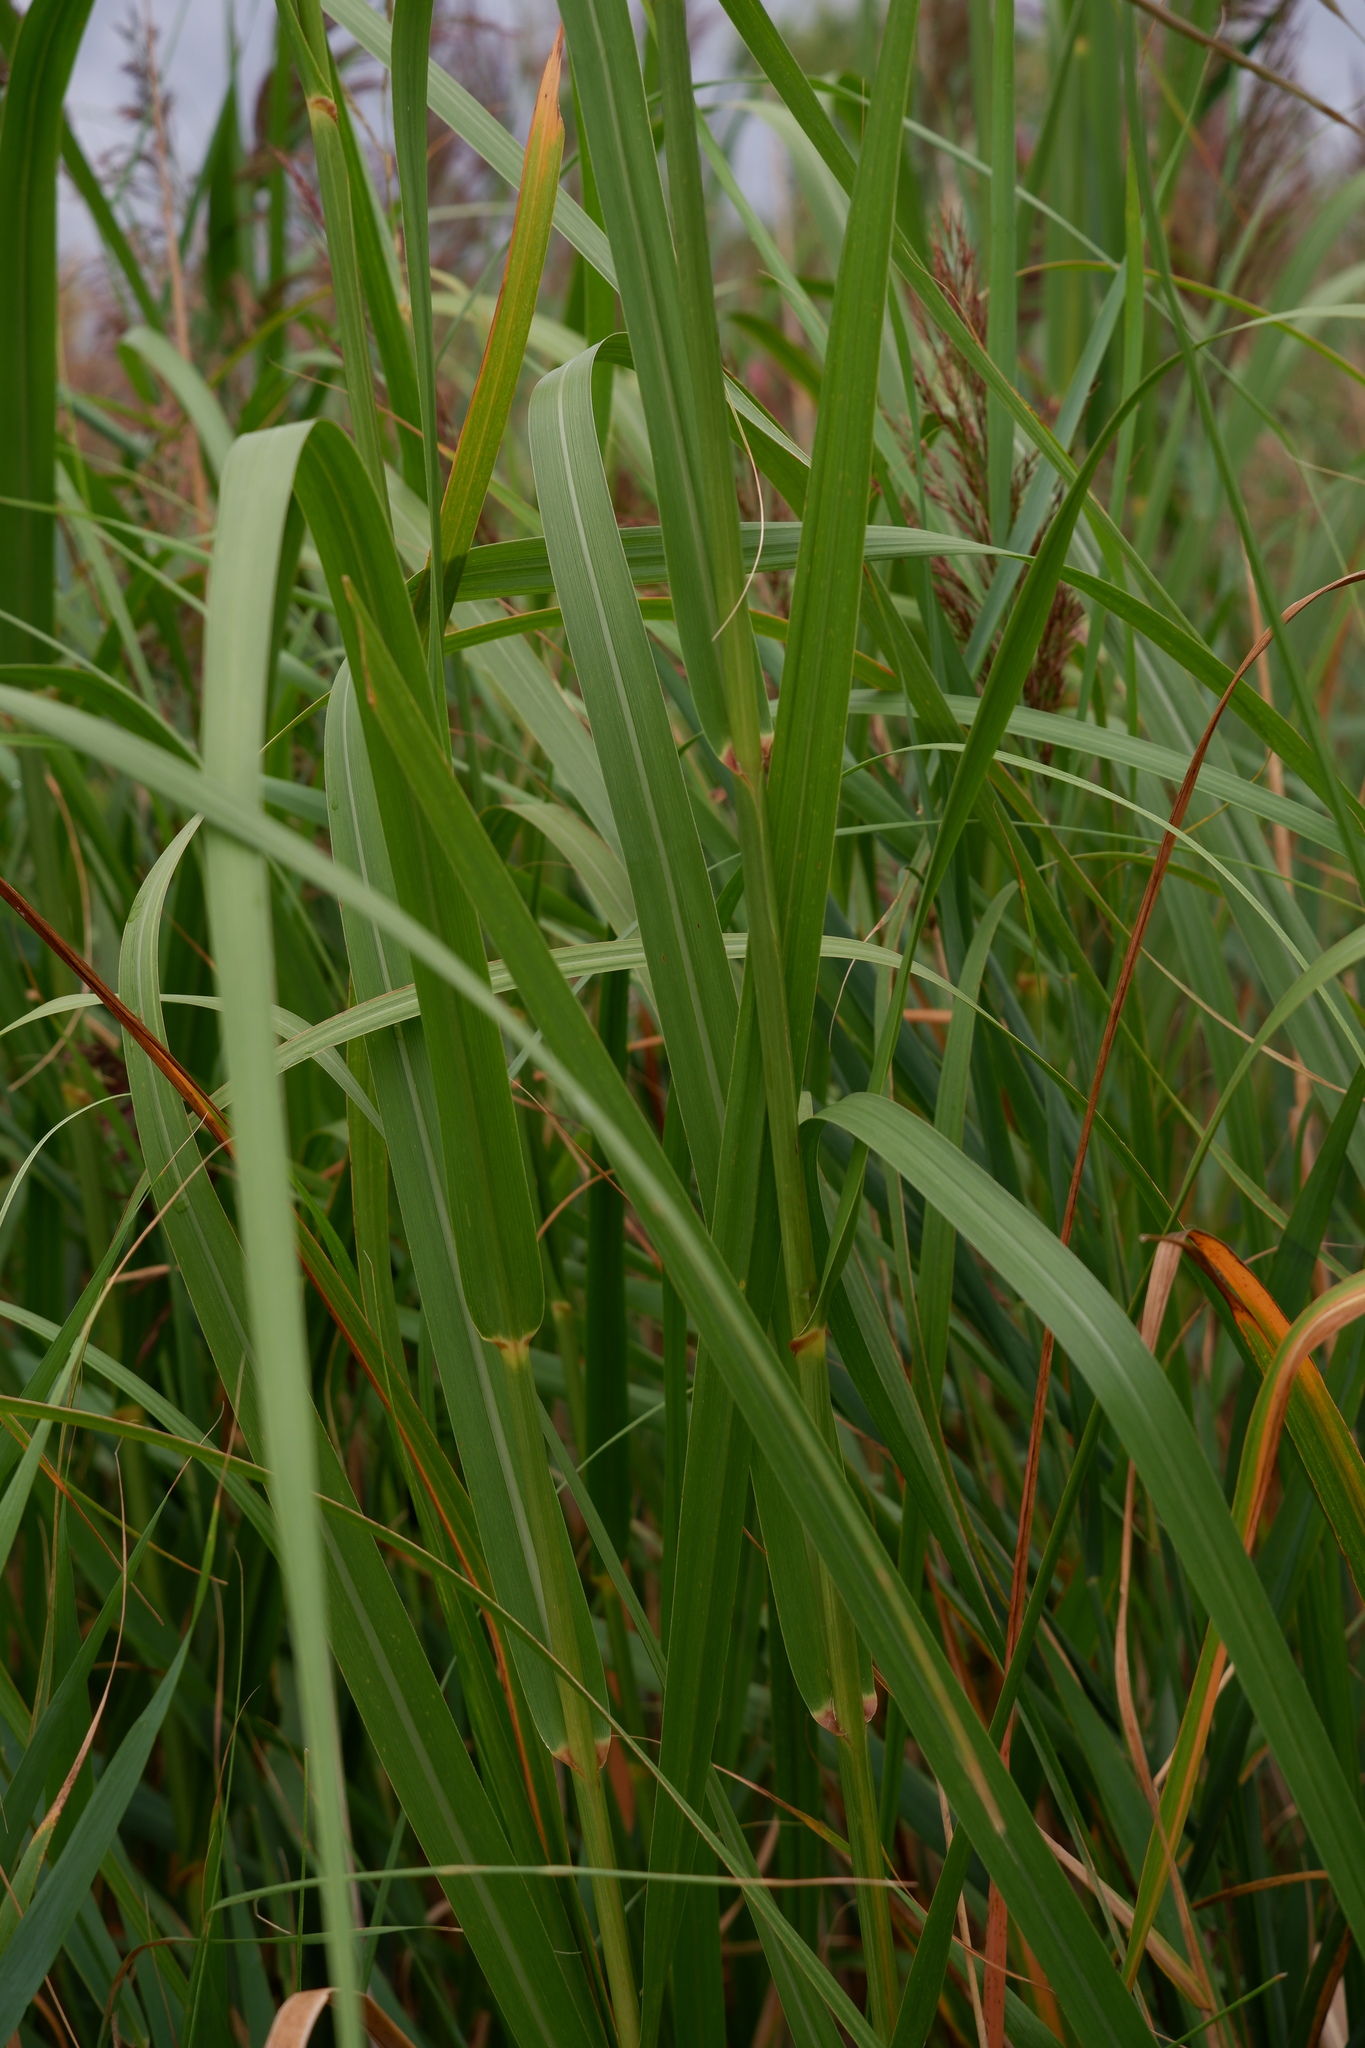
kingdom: Plantae
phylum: Tracheophyta
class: Liliopsida
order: Poales
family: Poaceae
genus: Sporobolus
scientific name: Sporobolus cynosuroides
